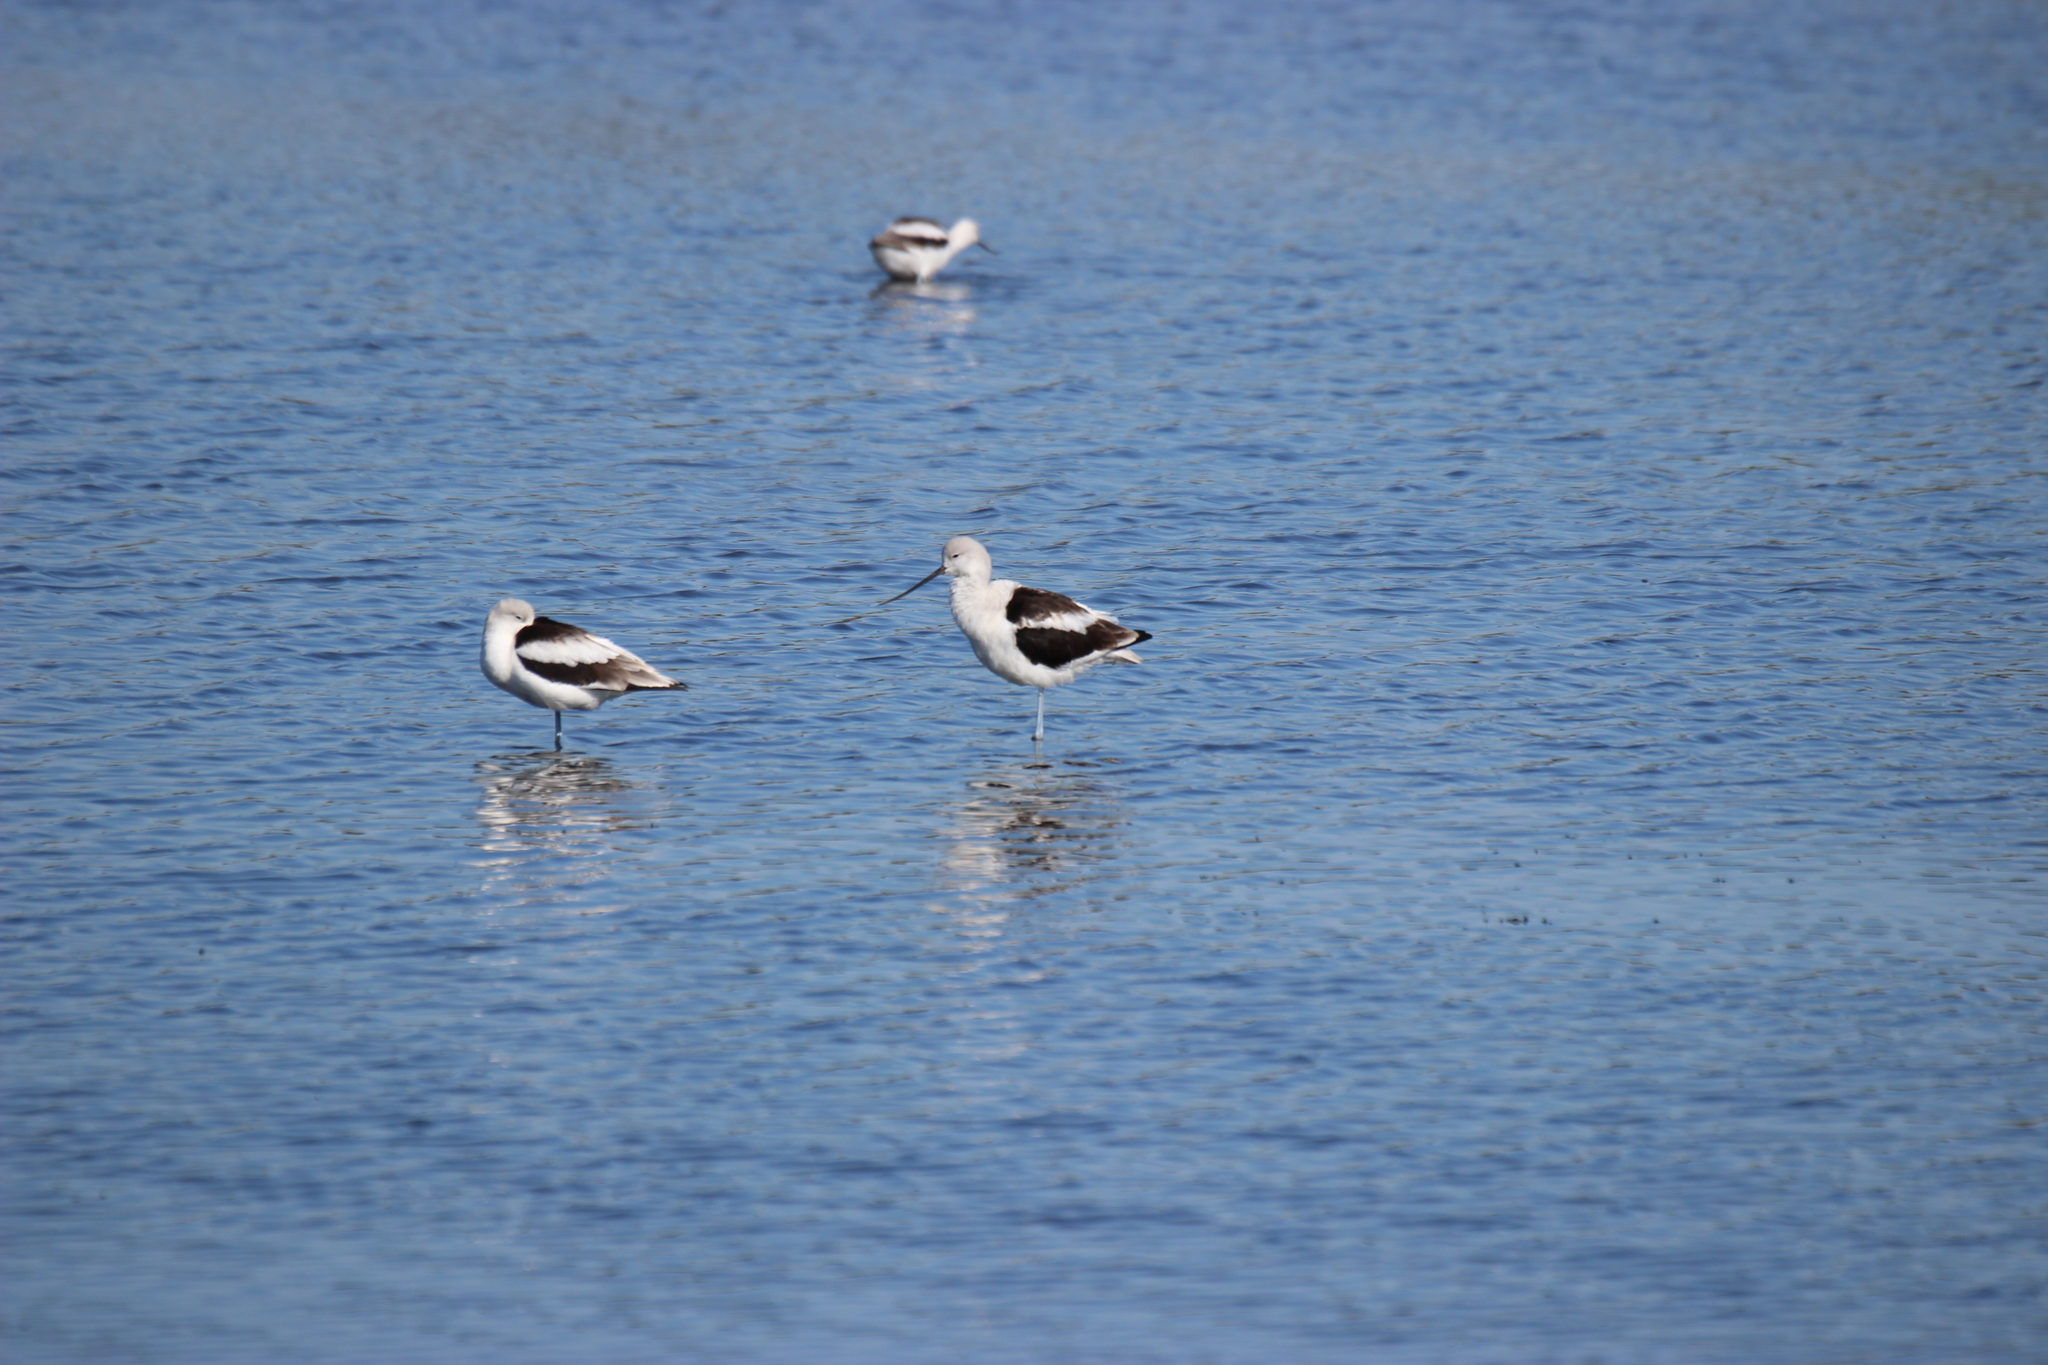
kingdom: Animalia
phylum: Chordata
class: Aves
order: Charadriiformes
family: Recurvirostridae
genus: Recurvirostra
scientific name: Recurvirostra americana
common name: American avocet
